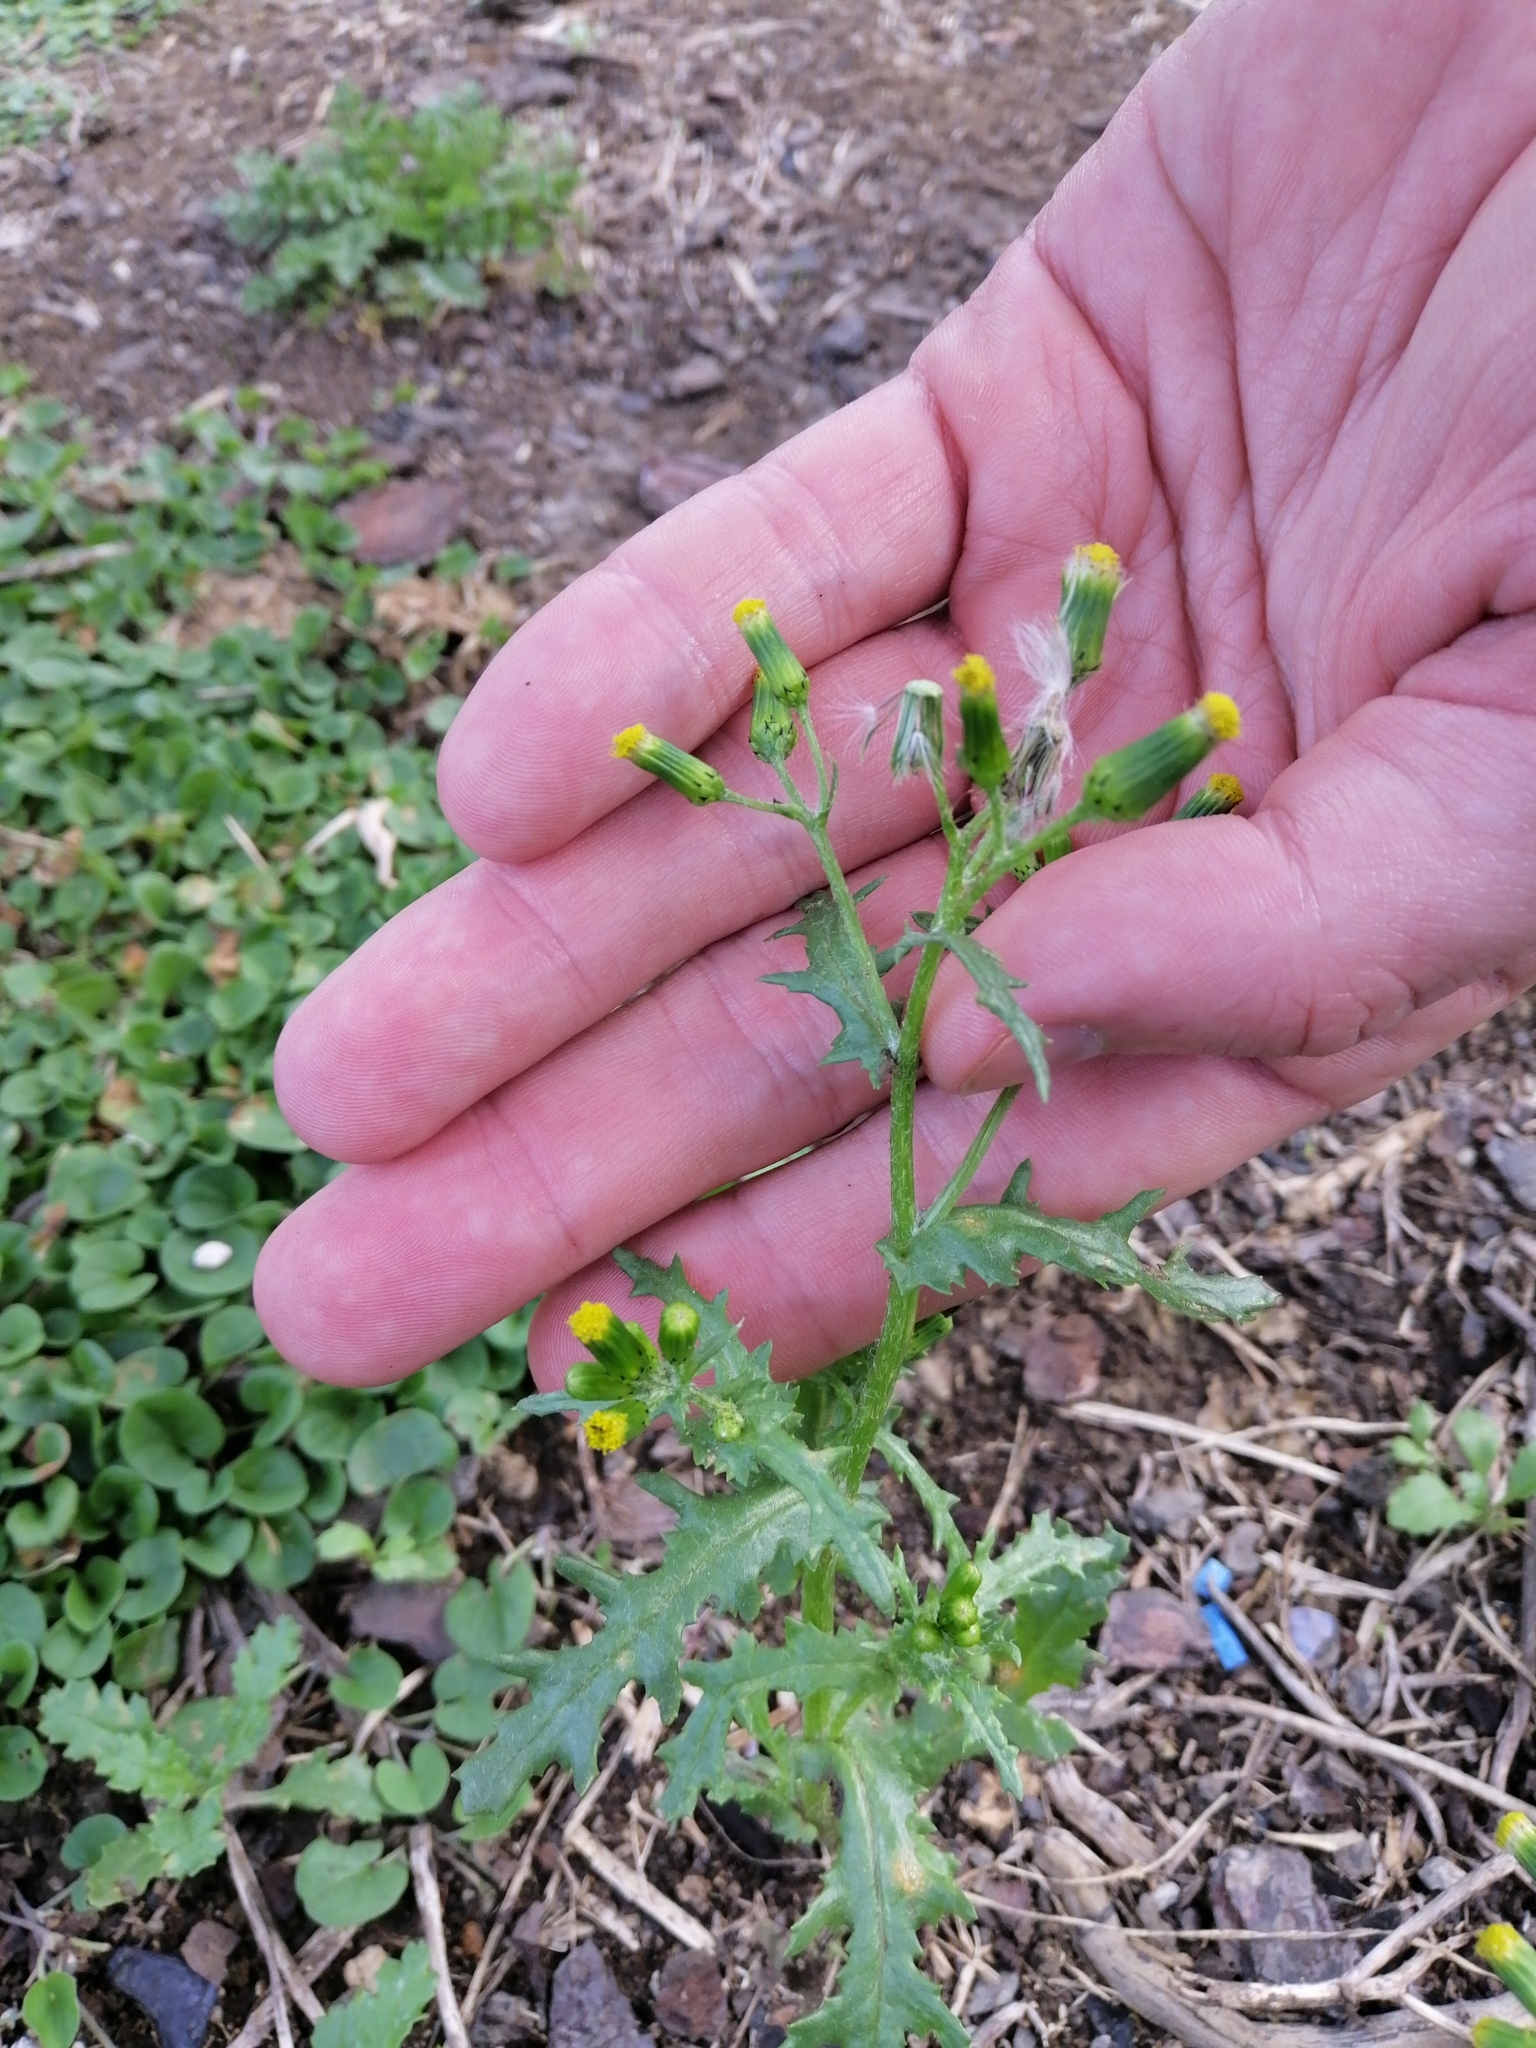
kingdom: Plantae
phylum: Tracheophyta
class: Magnoliopsida
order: Asterales
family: Asteraceae
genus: Senecio
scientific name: Senecio vulgaris
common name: Old-man-in-the-spring
